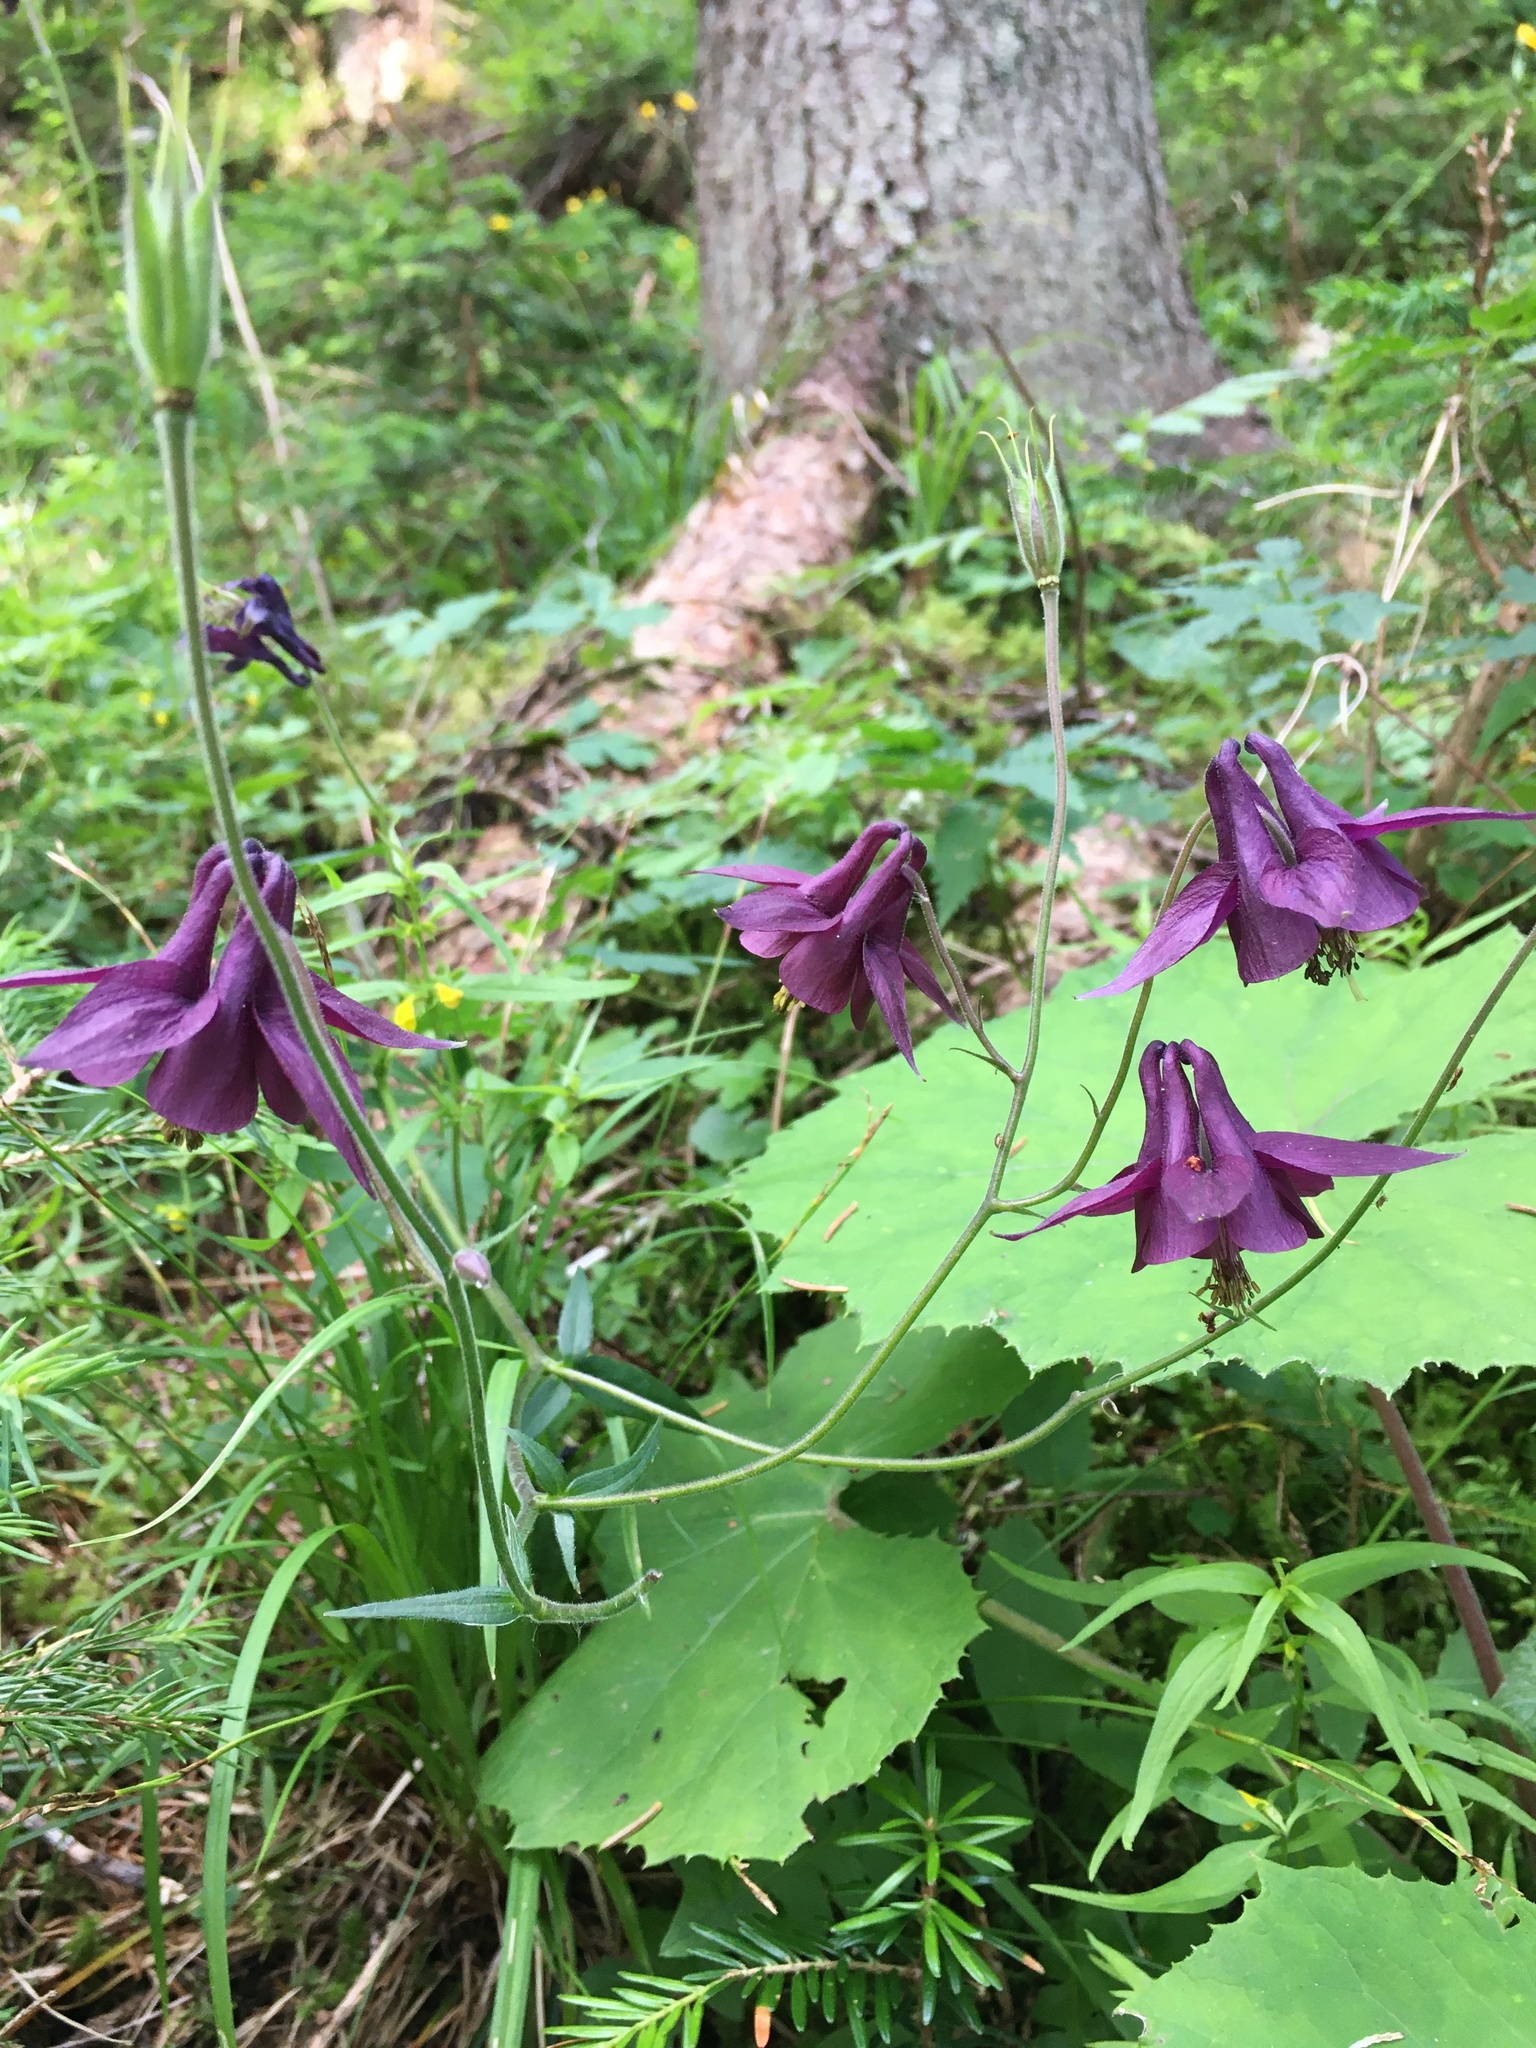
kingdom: Plantae
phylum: Tracheophyta
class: Magnoliopsida
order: Ranunculales
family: Ranunculaceae
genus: Aquilegia
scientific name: Aquilegia atrata
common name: Dark columbine
